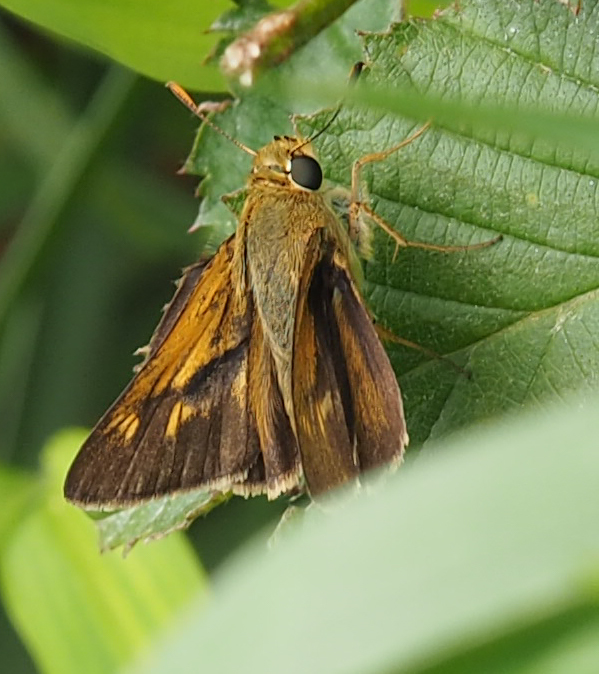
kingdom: Animalia
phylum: Arthropoda
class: Insecta
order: Lepidoptera
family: Hesperiidae
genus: Atalopedes
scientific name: Atalopedes
